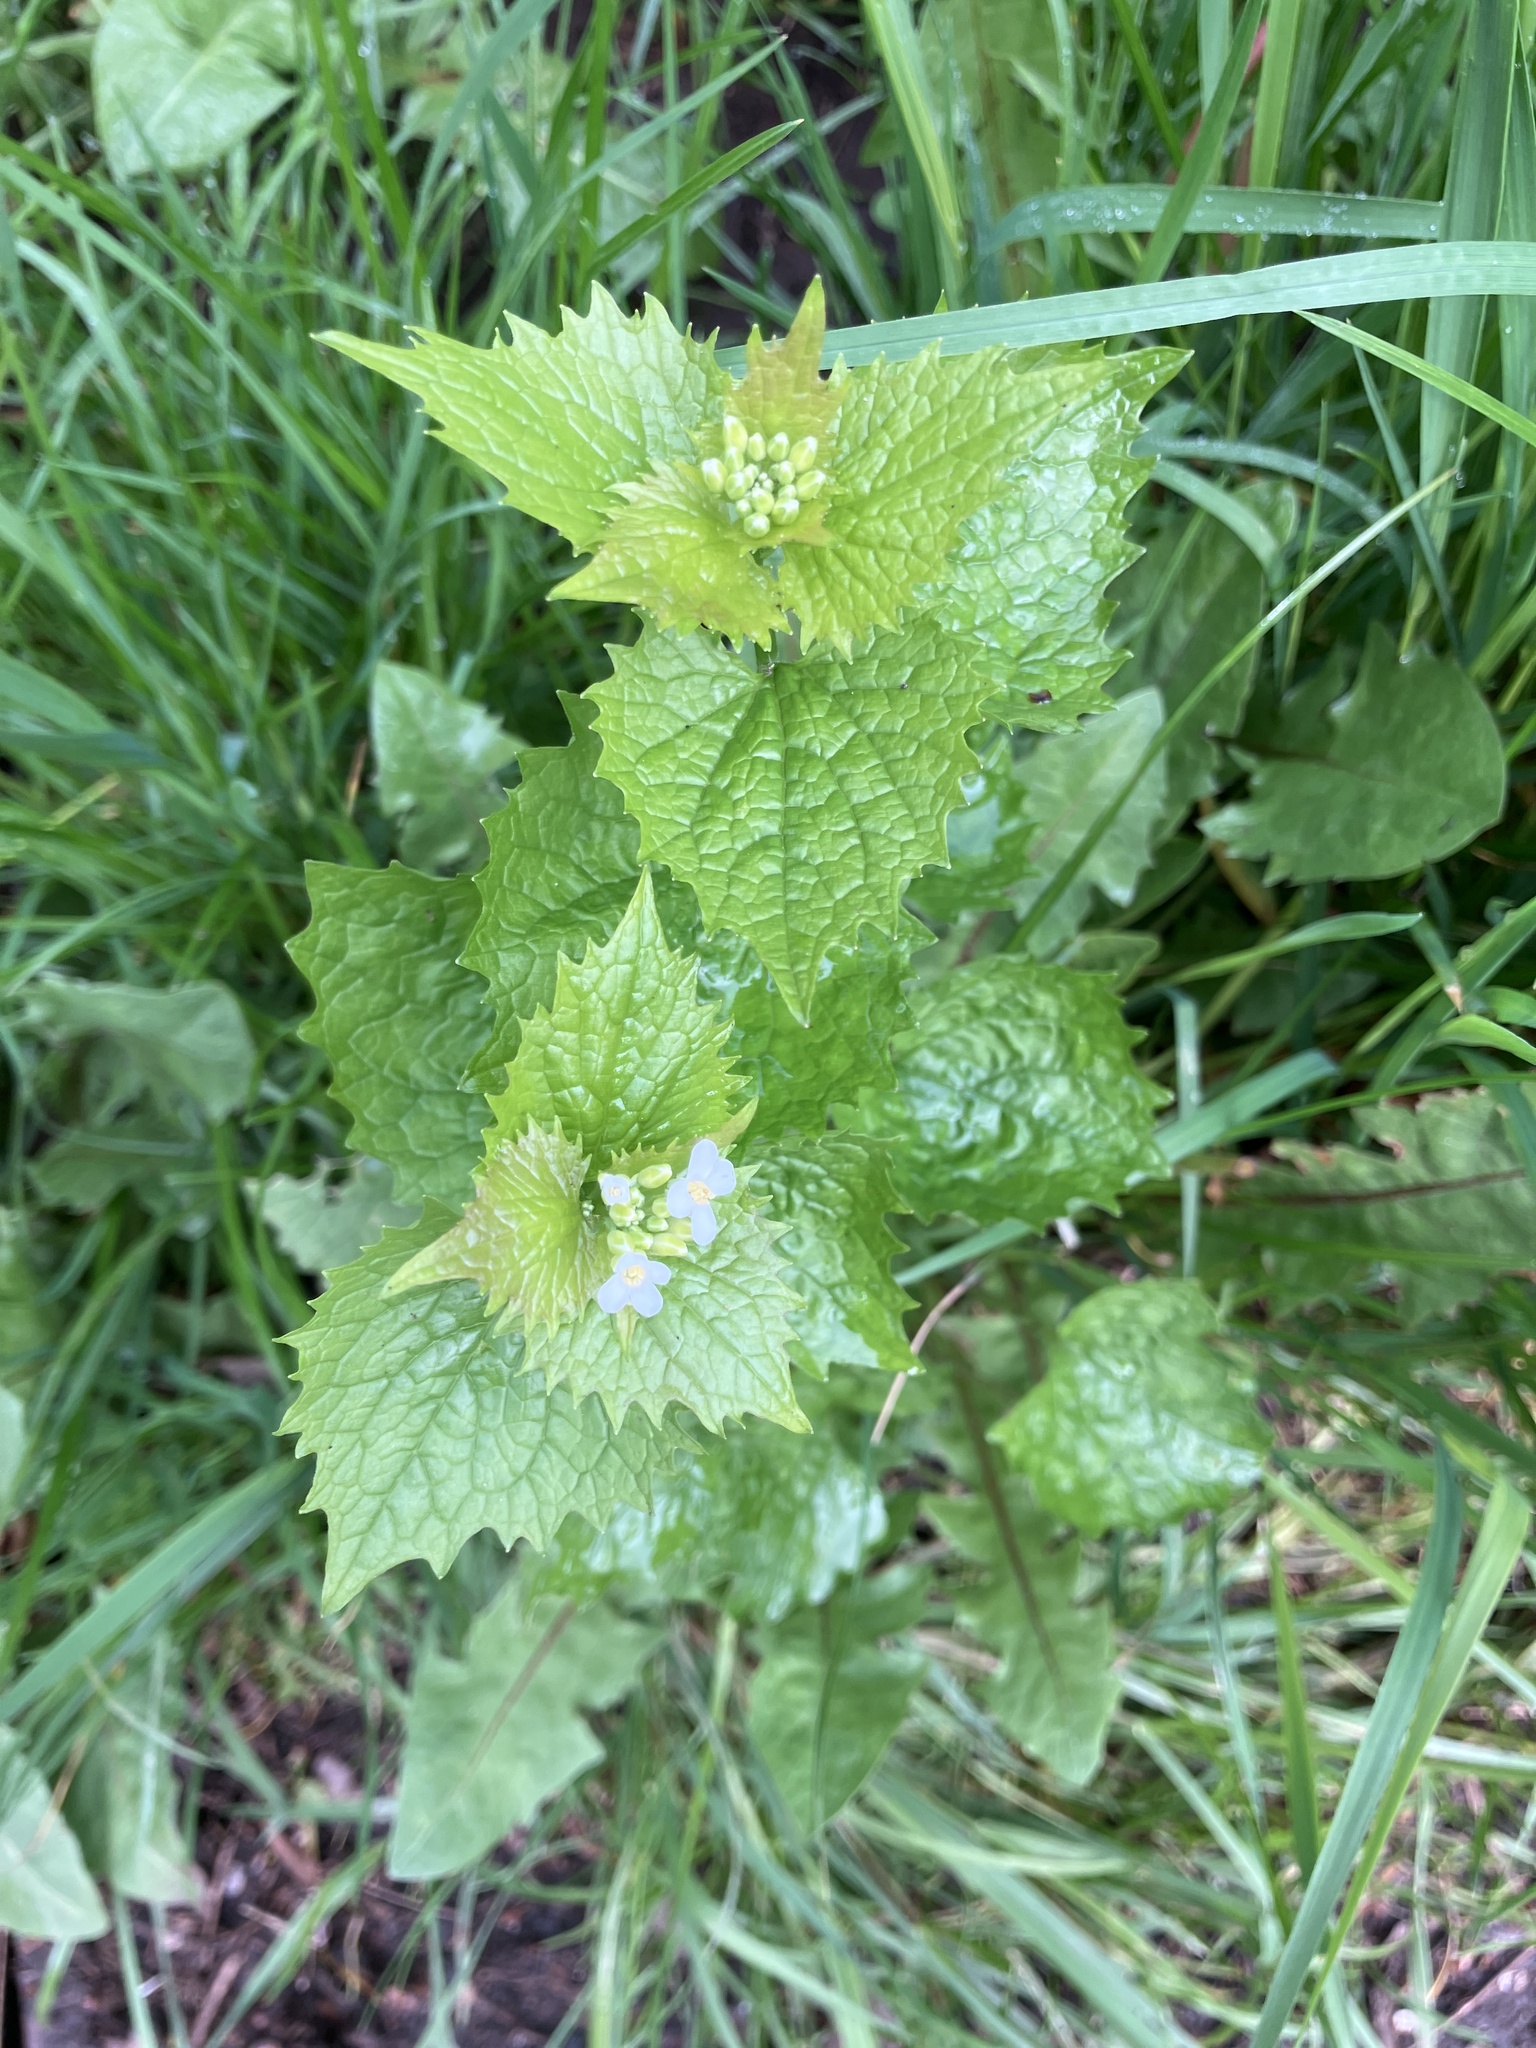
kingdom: Plantae
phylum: Tracheophyta
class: Magnoliopsida
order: Brassicales
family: Brassicaceae
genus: Alliaria
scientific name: Alliaria petiolata
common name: Garlic mustard
